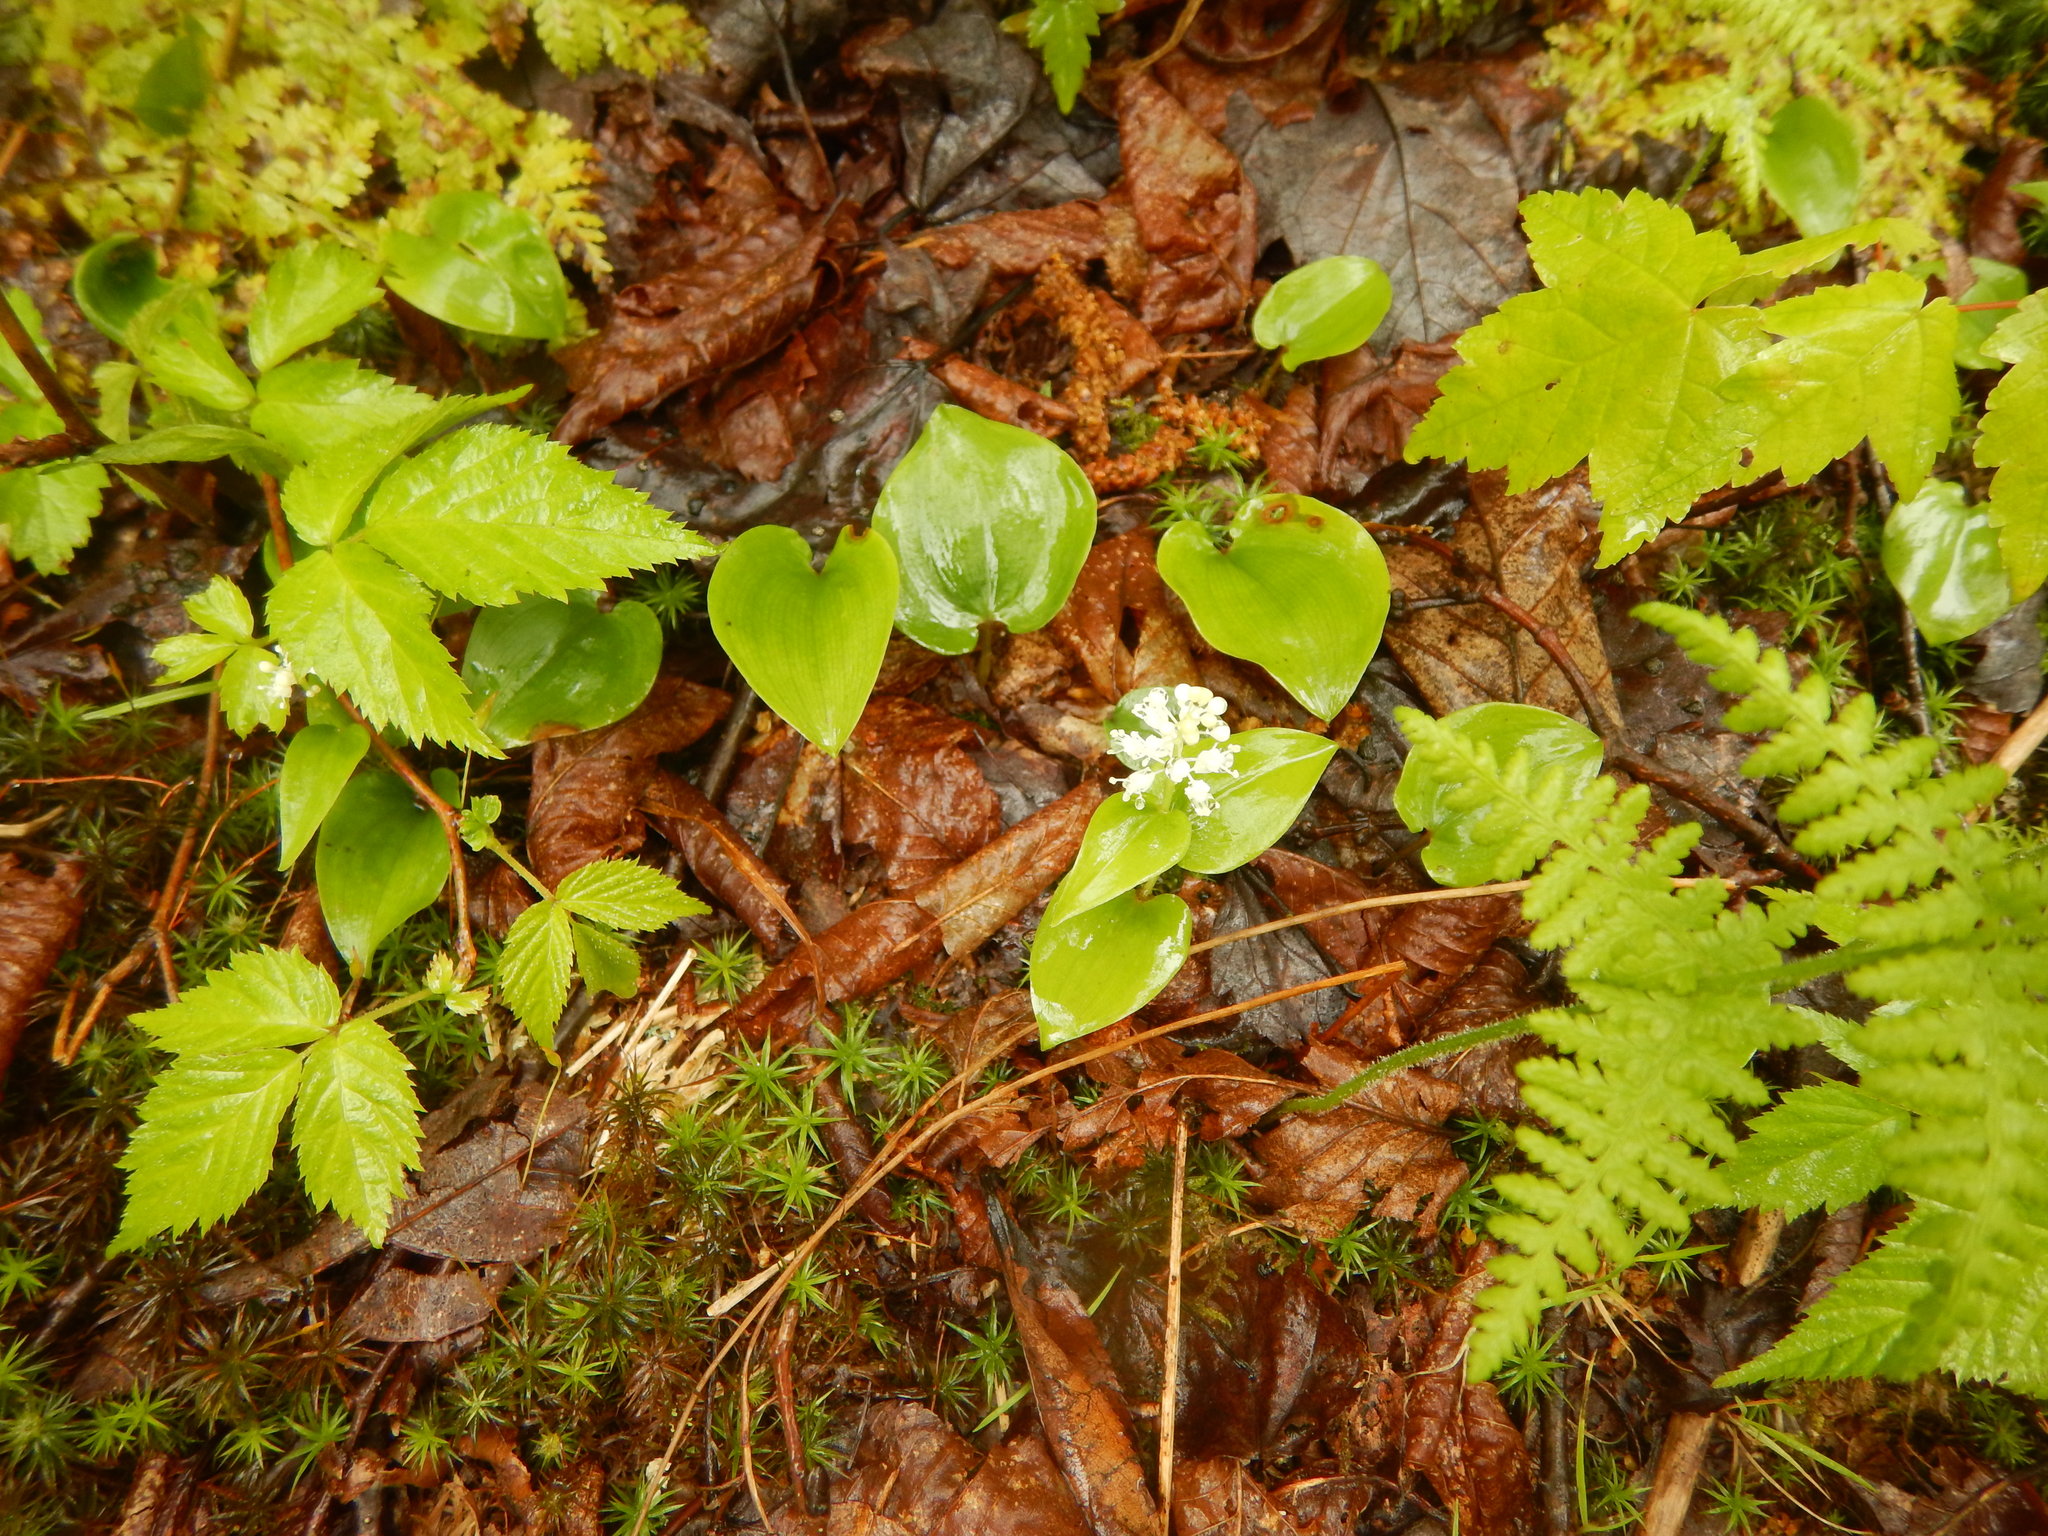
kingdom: Plantae
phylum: Tracheophyta
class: Liliopsida
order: Asparagales
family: Asparagaceae
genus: Maianthemum
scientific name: Maianthemum canadense
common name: False lily-of-the-valley
